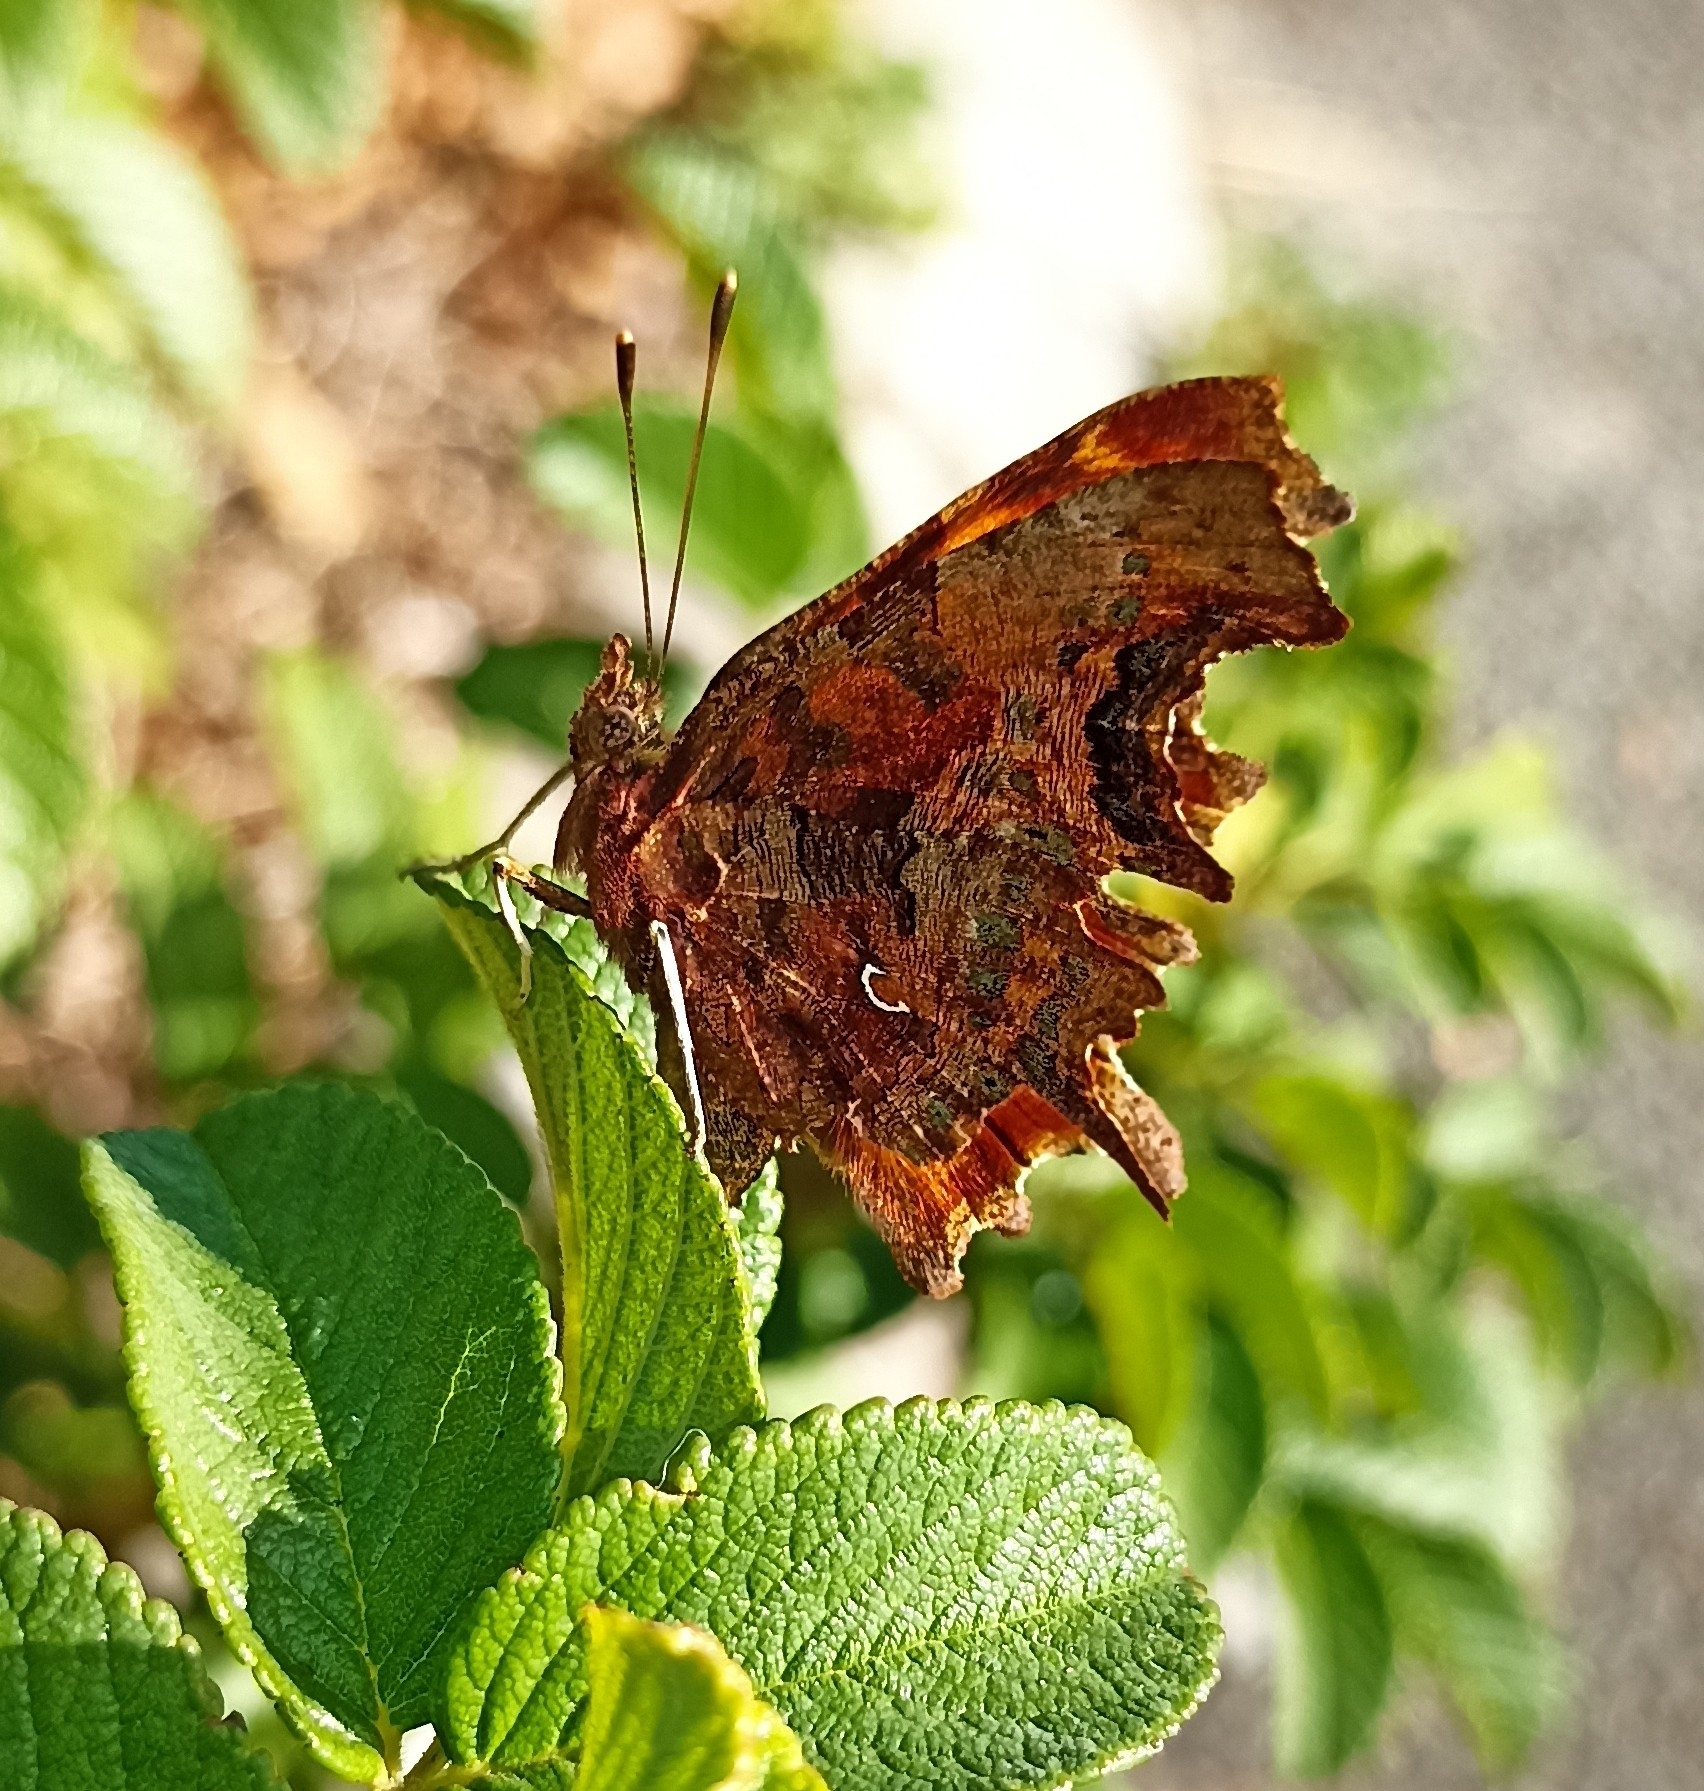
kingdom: Animalia
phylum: Arthropoda
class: Insecta
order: Lepidoptera
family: Nymphalidae
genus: Polygonia
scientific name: Polygonia c-album
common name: Comma
